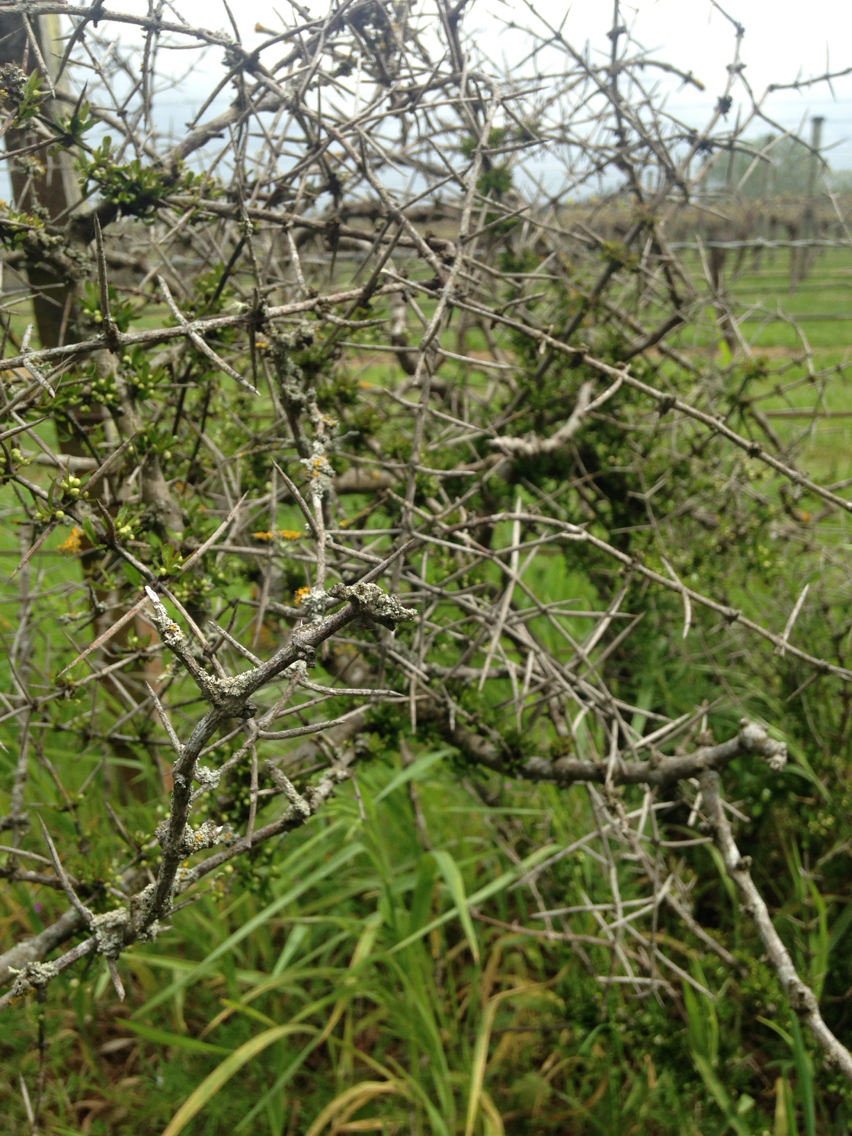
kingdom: Plantae
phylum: Tracheophyta
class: Magnoliopsida
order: Rosales
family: Rhamnaceae
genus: Discaria
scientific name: Discaria toumatou
